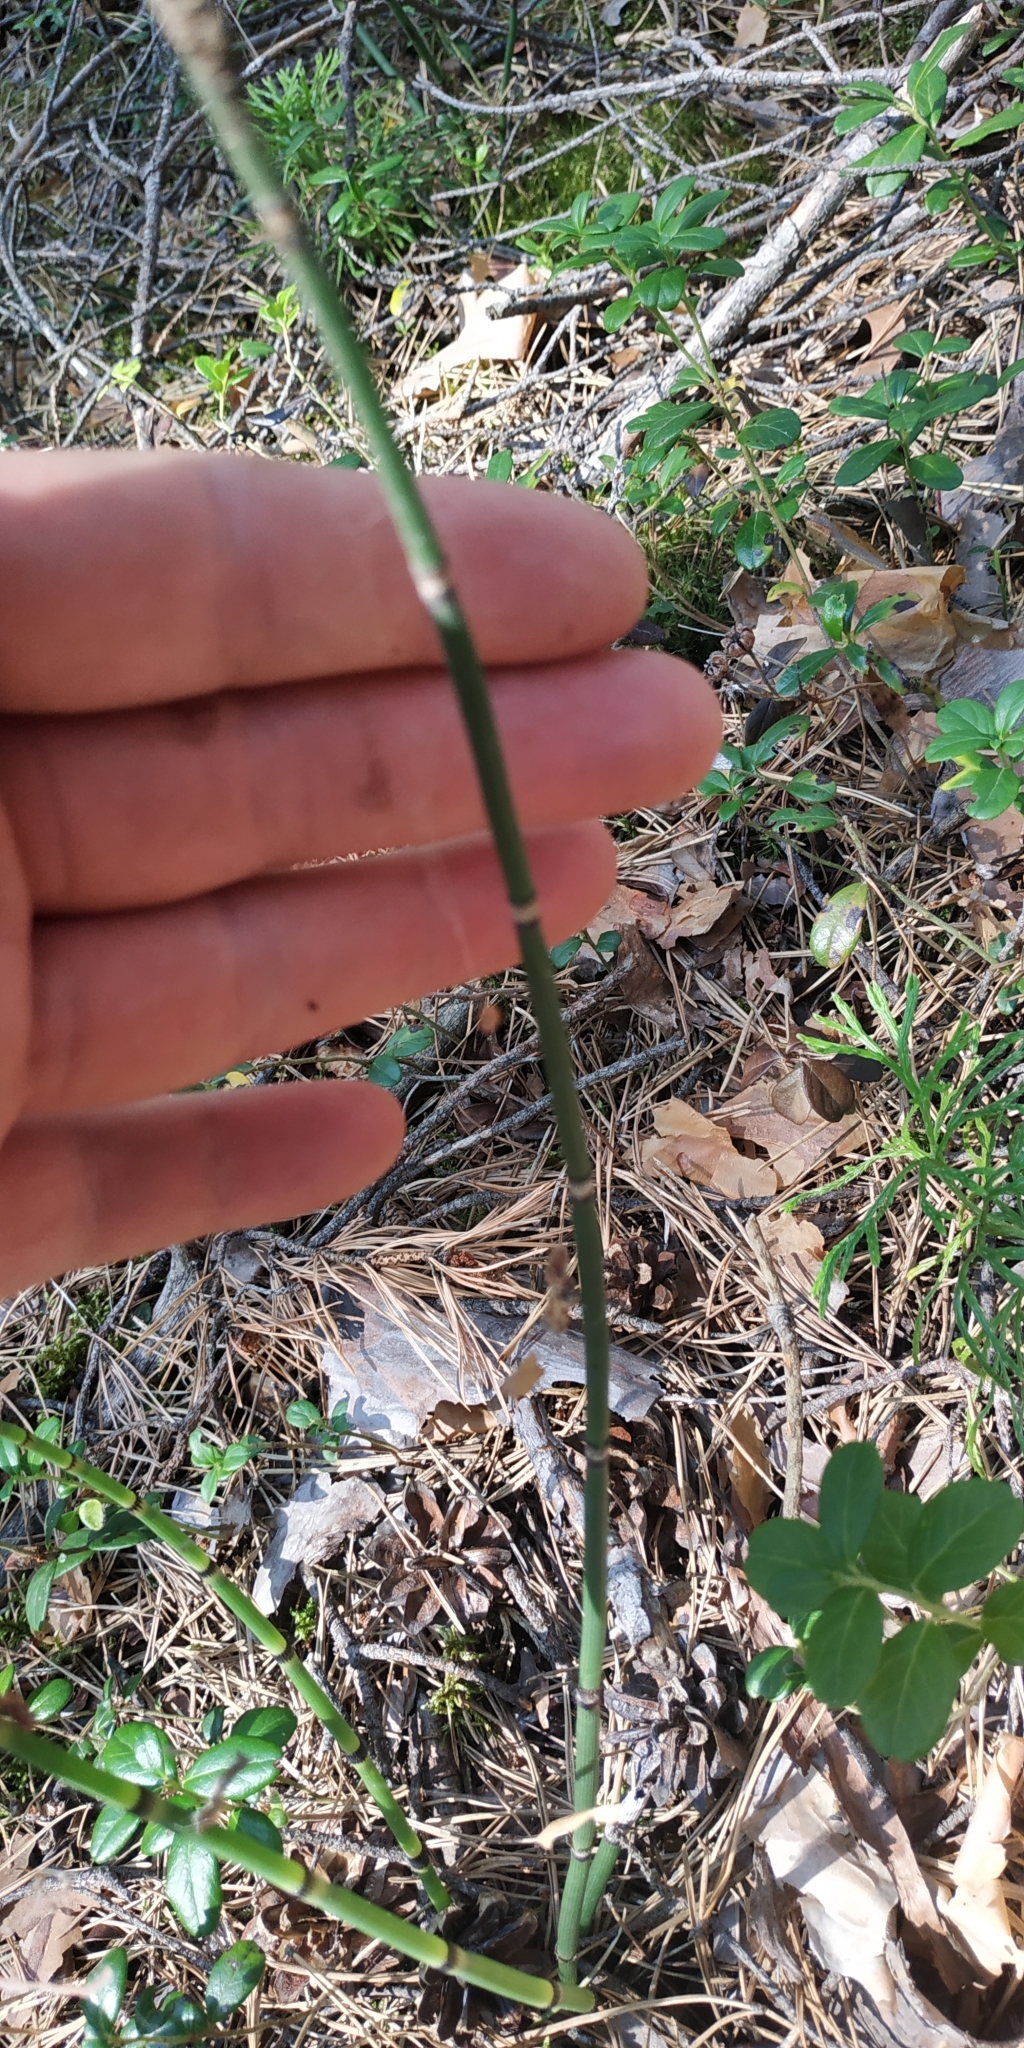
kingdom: Plantae
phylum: Tracheophyta
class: Polypodiopsida
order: Equisetales
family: Equisetaceae
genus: Equisetum
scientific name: Equisetum hyemale
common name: Rough horsetail
